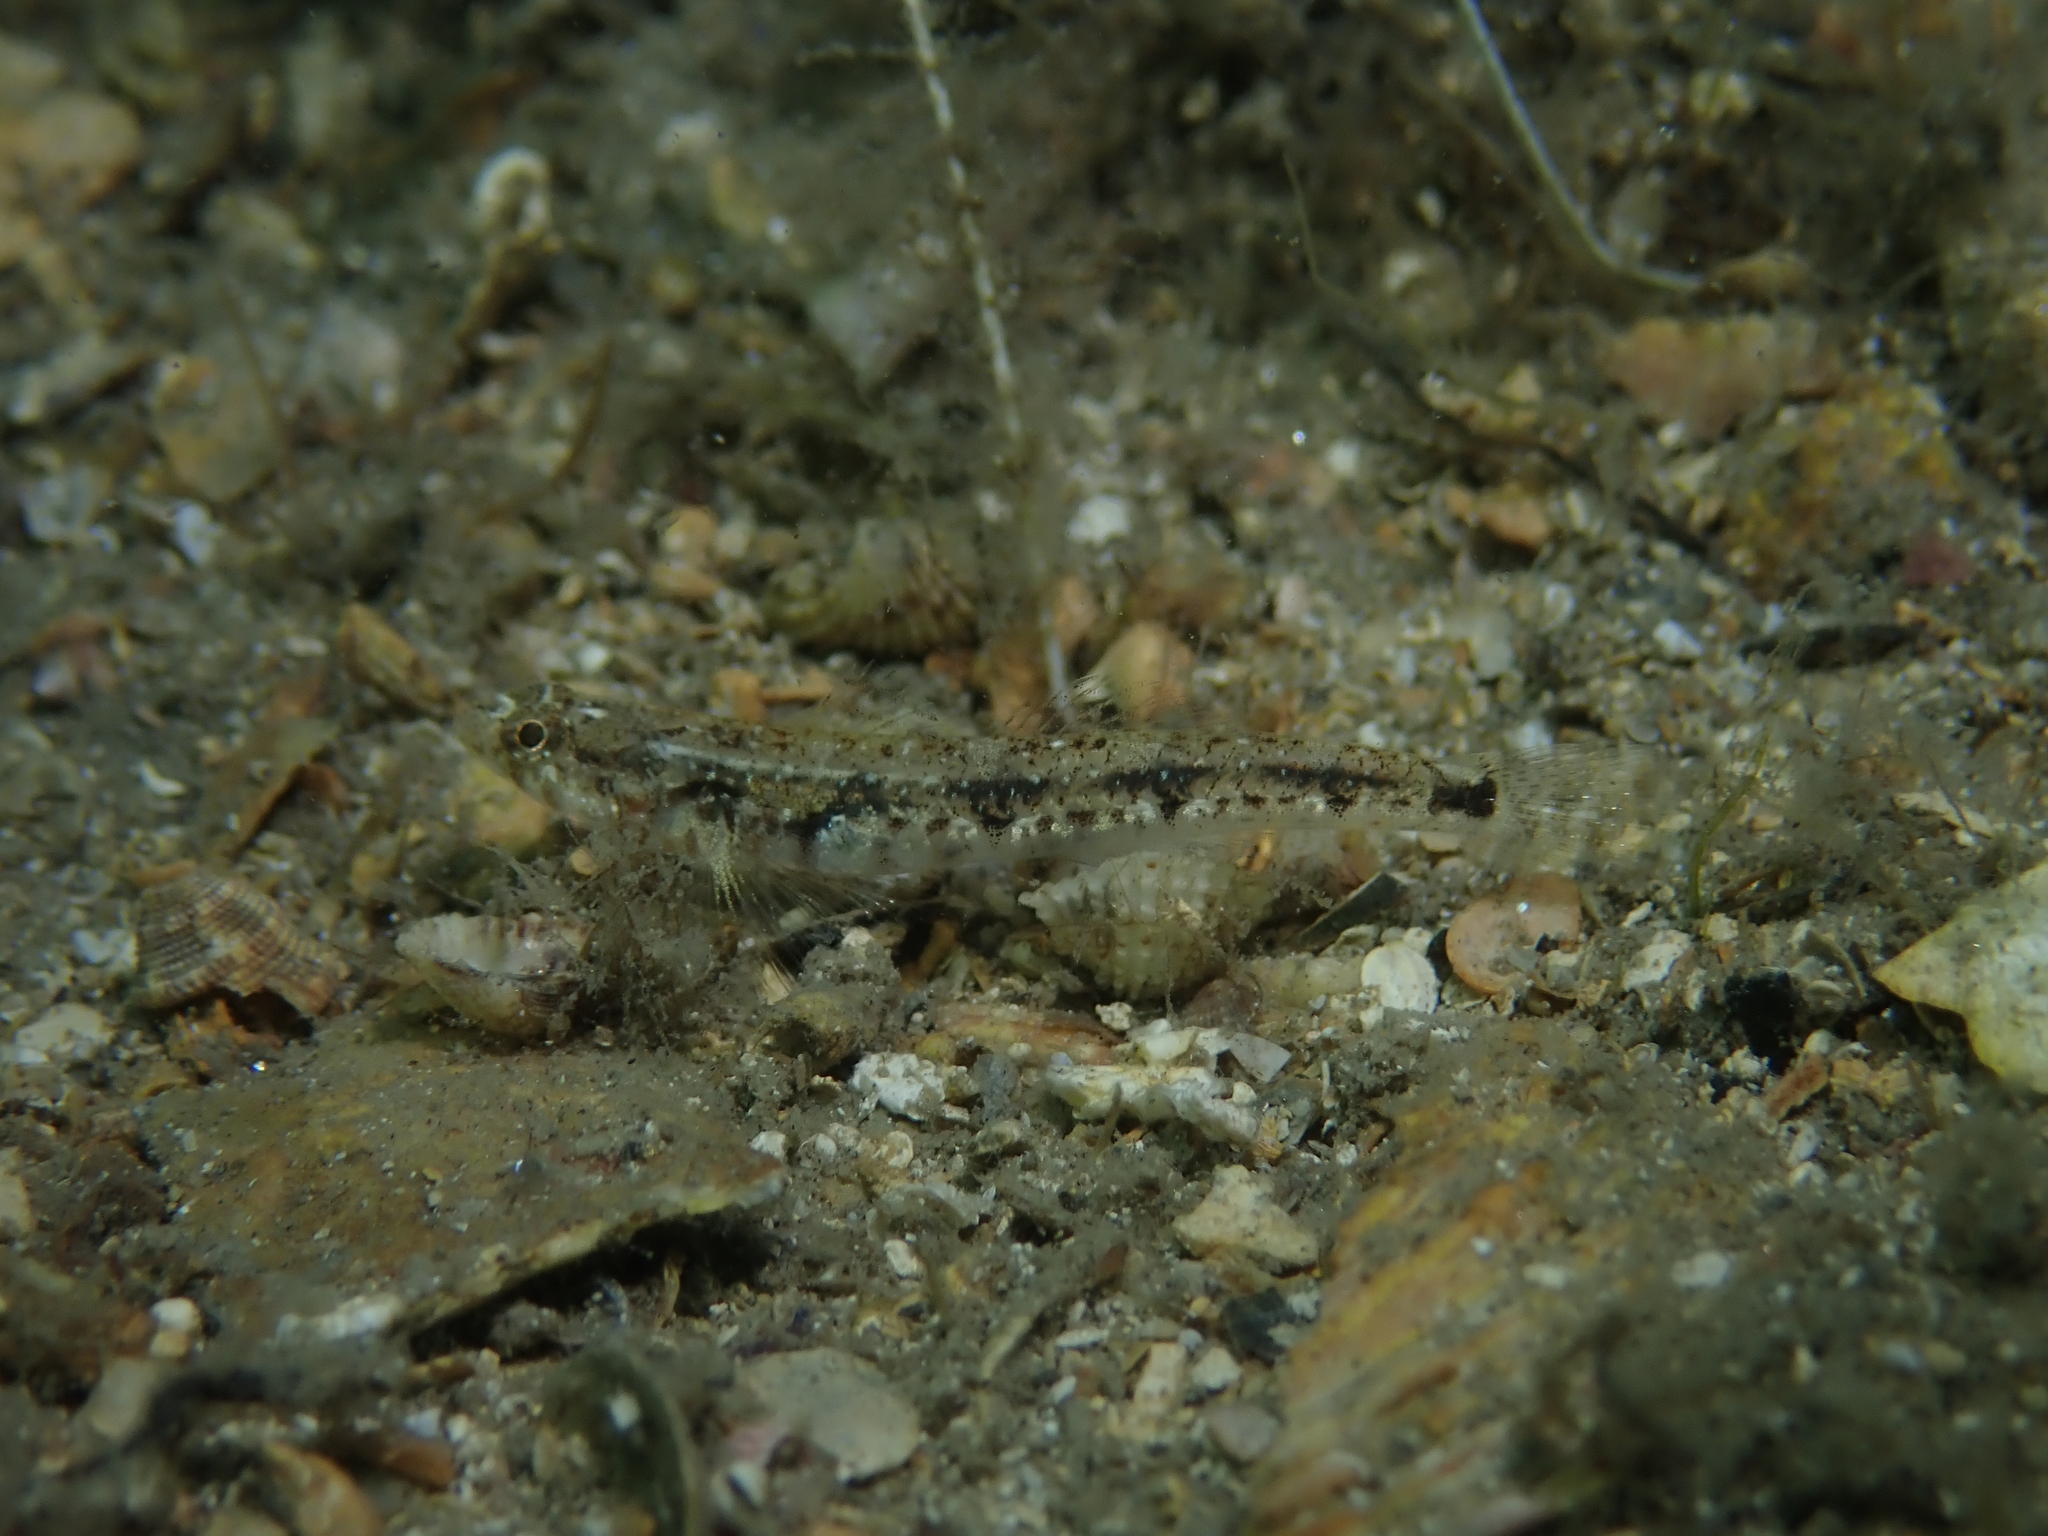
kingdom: Animalia
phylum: Chordata
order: Perciformes
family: Gobiidae
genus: Pomatoschistus
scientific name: Pomatoschistus bathi
